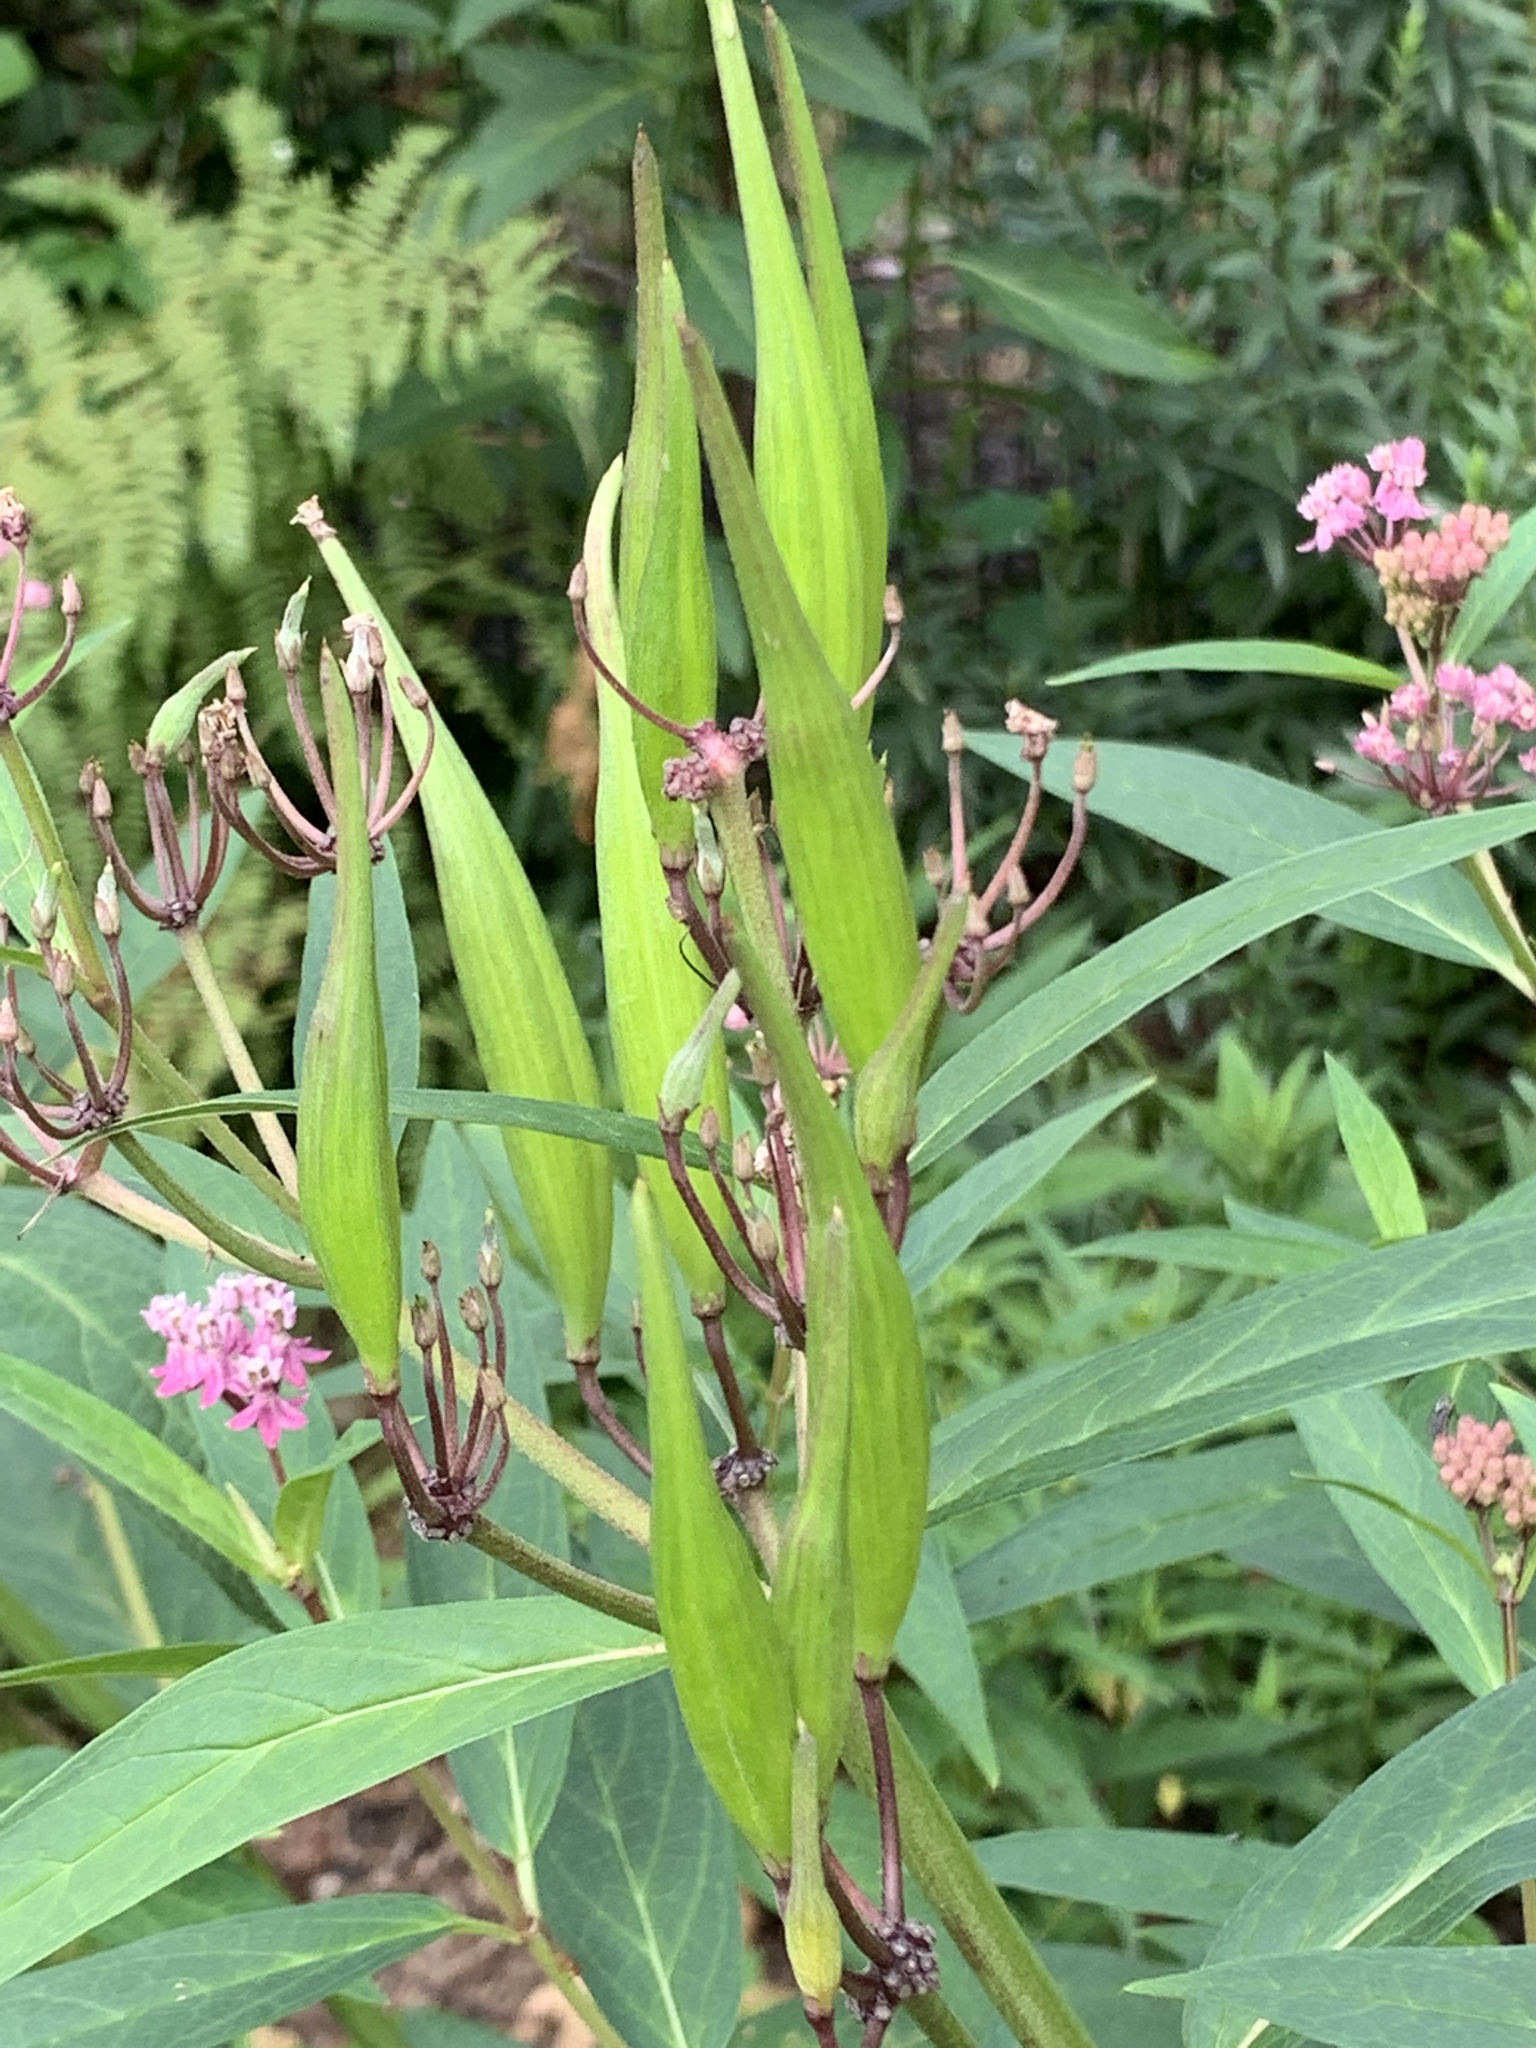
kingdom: Plantae
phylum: Tracheophyta
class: Magnoliopsida
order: Gentianales
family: Apocynaceae
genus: Asclepias
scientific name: Asclepias incarnata
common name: Swamp milkweed
